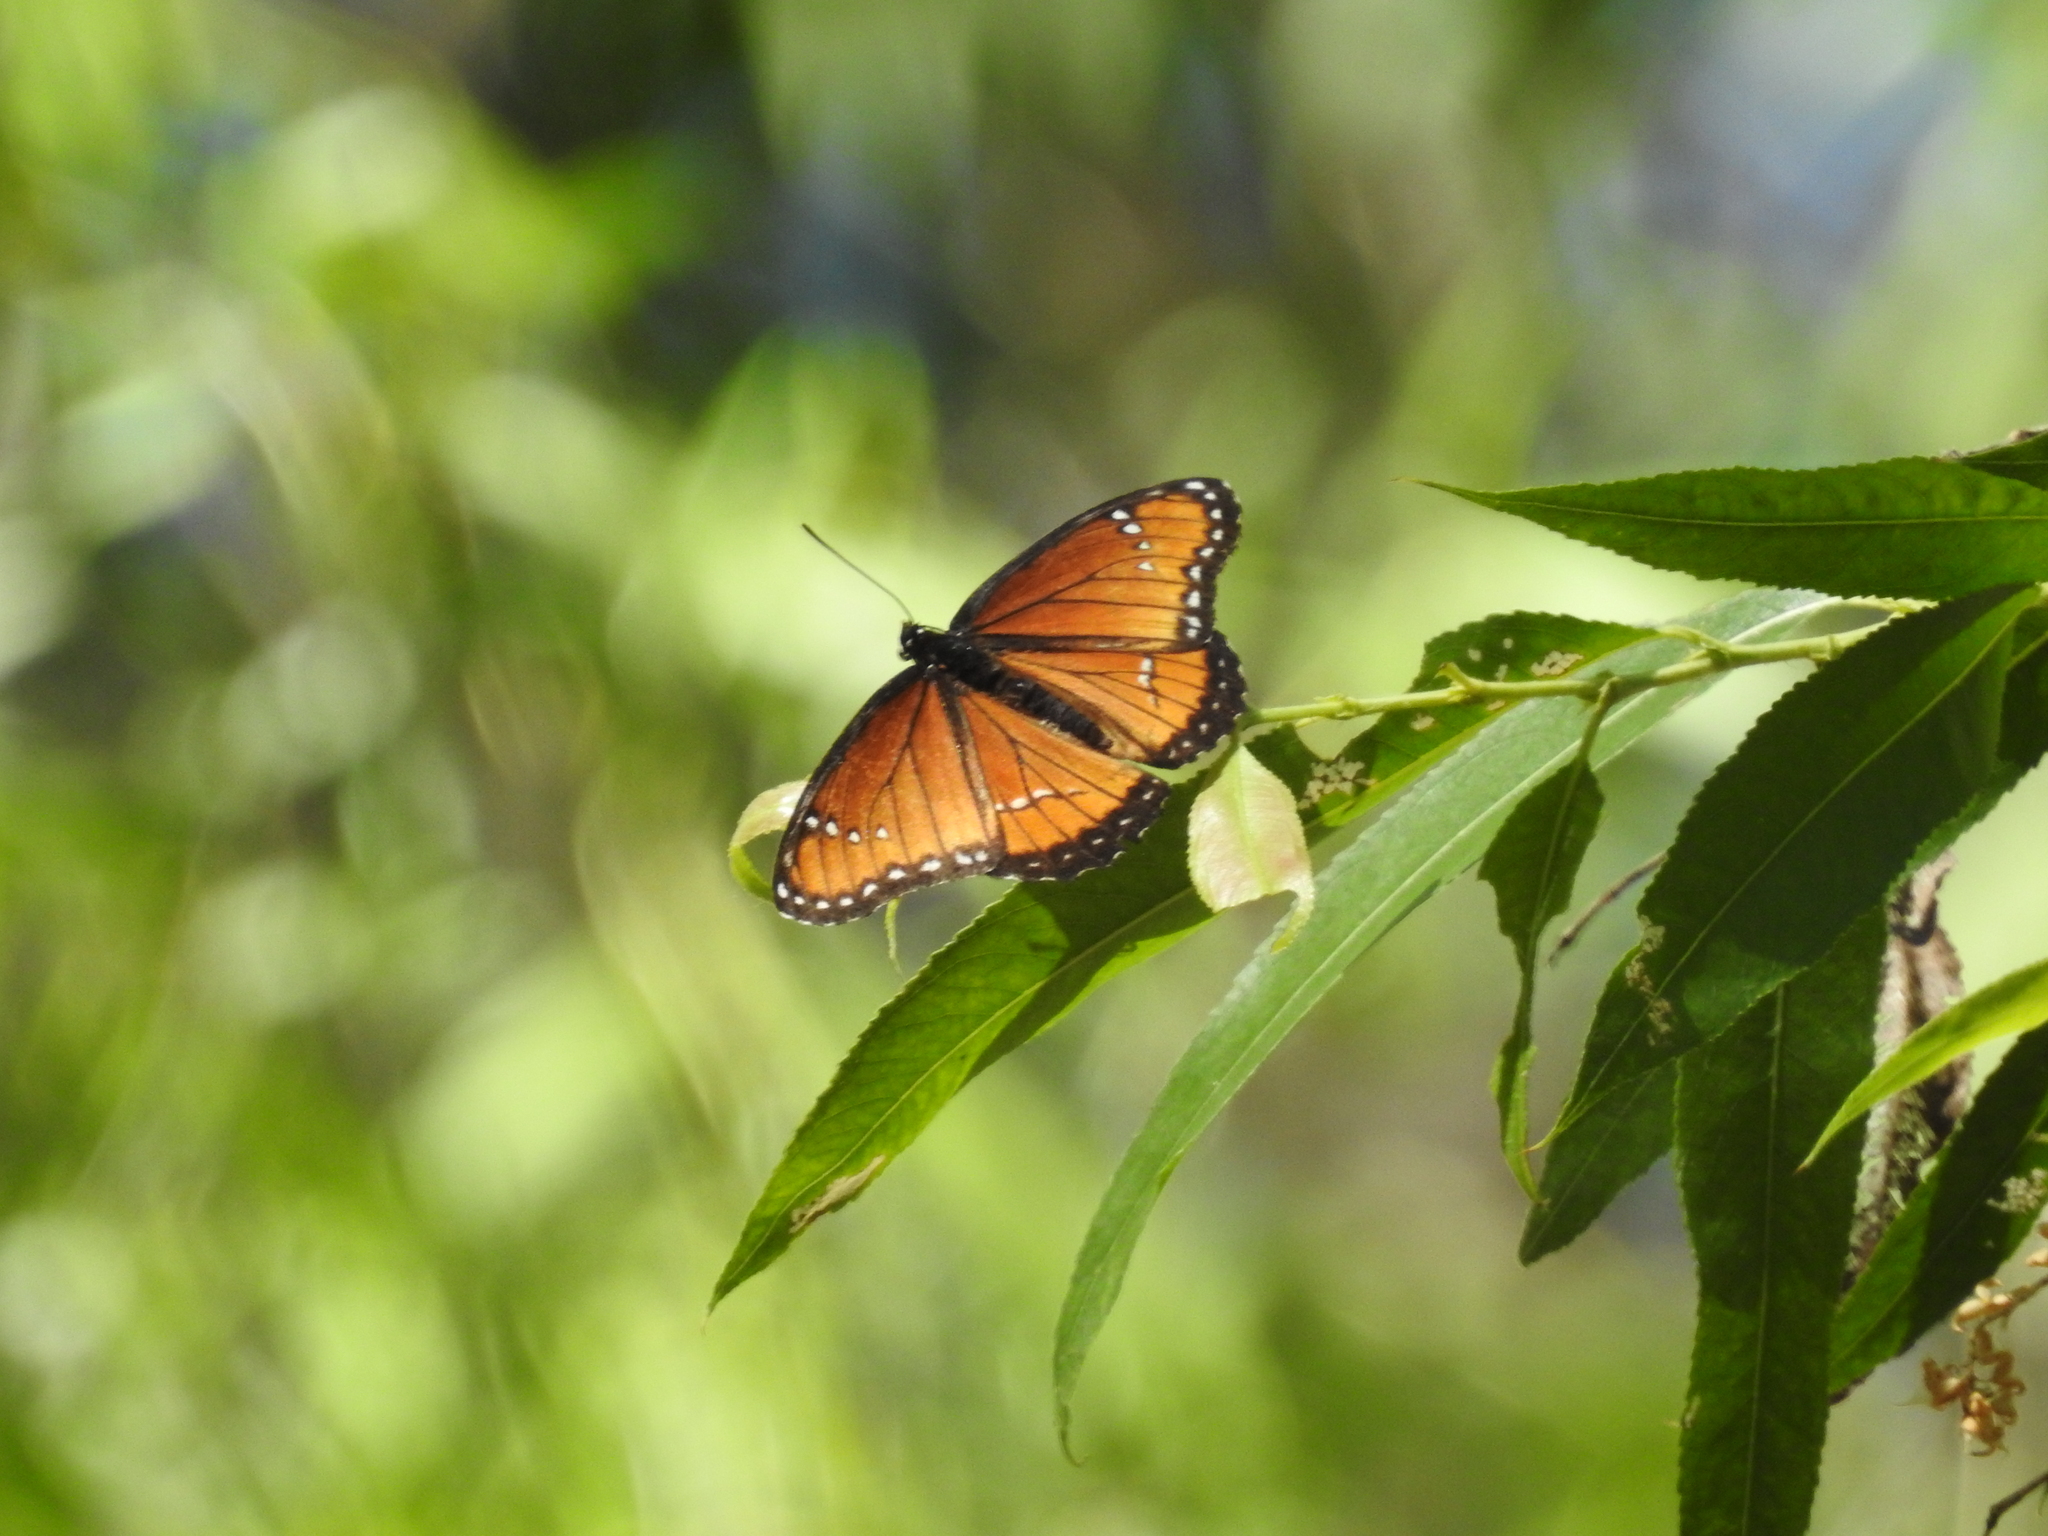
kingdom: Animalia
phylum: Arthropoda
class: Insecta
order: Lepidoptera
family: Nymphalidae
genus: Limenitis
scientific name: Limenitis archippus
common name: Viceroy
